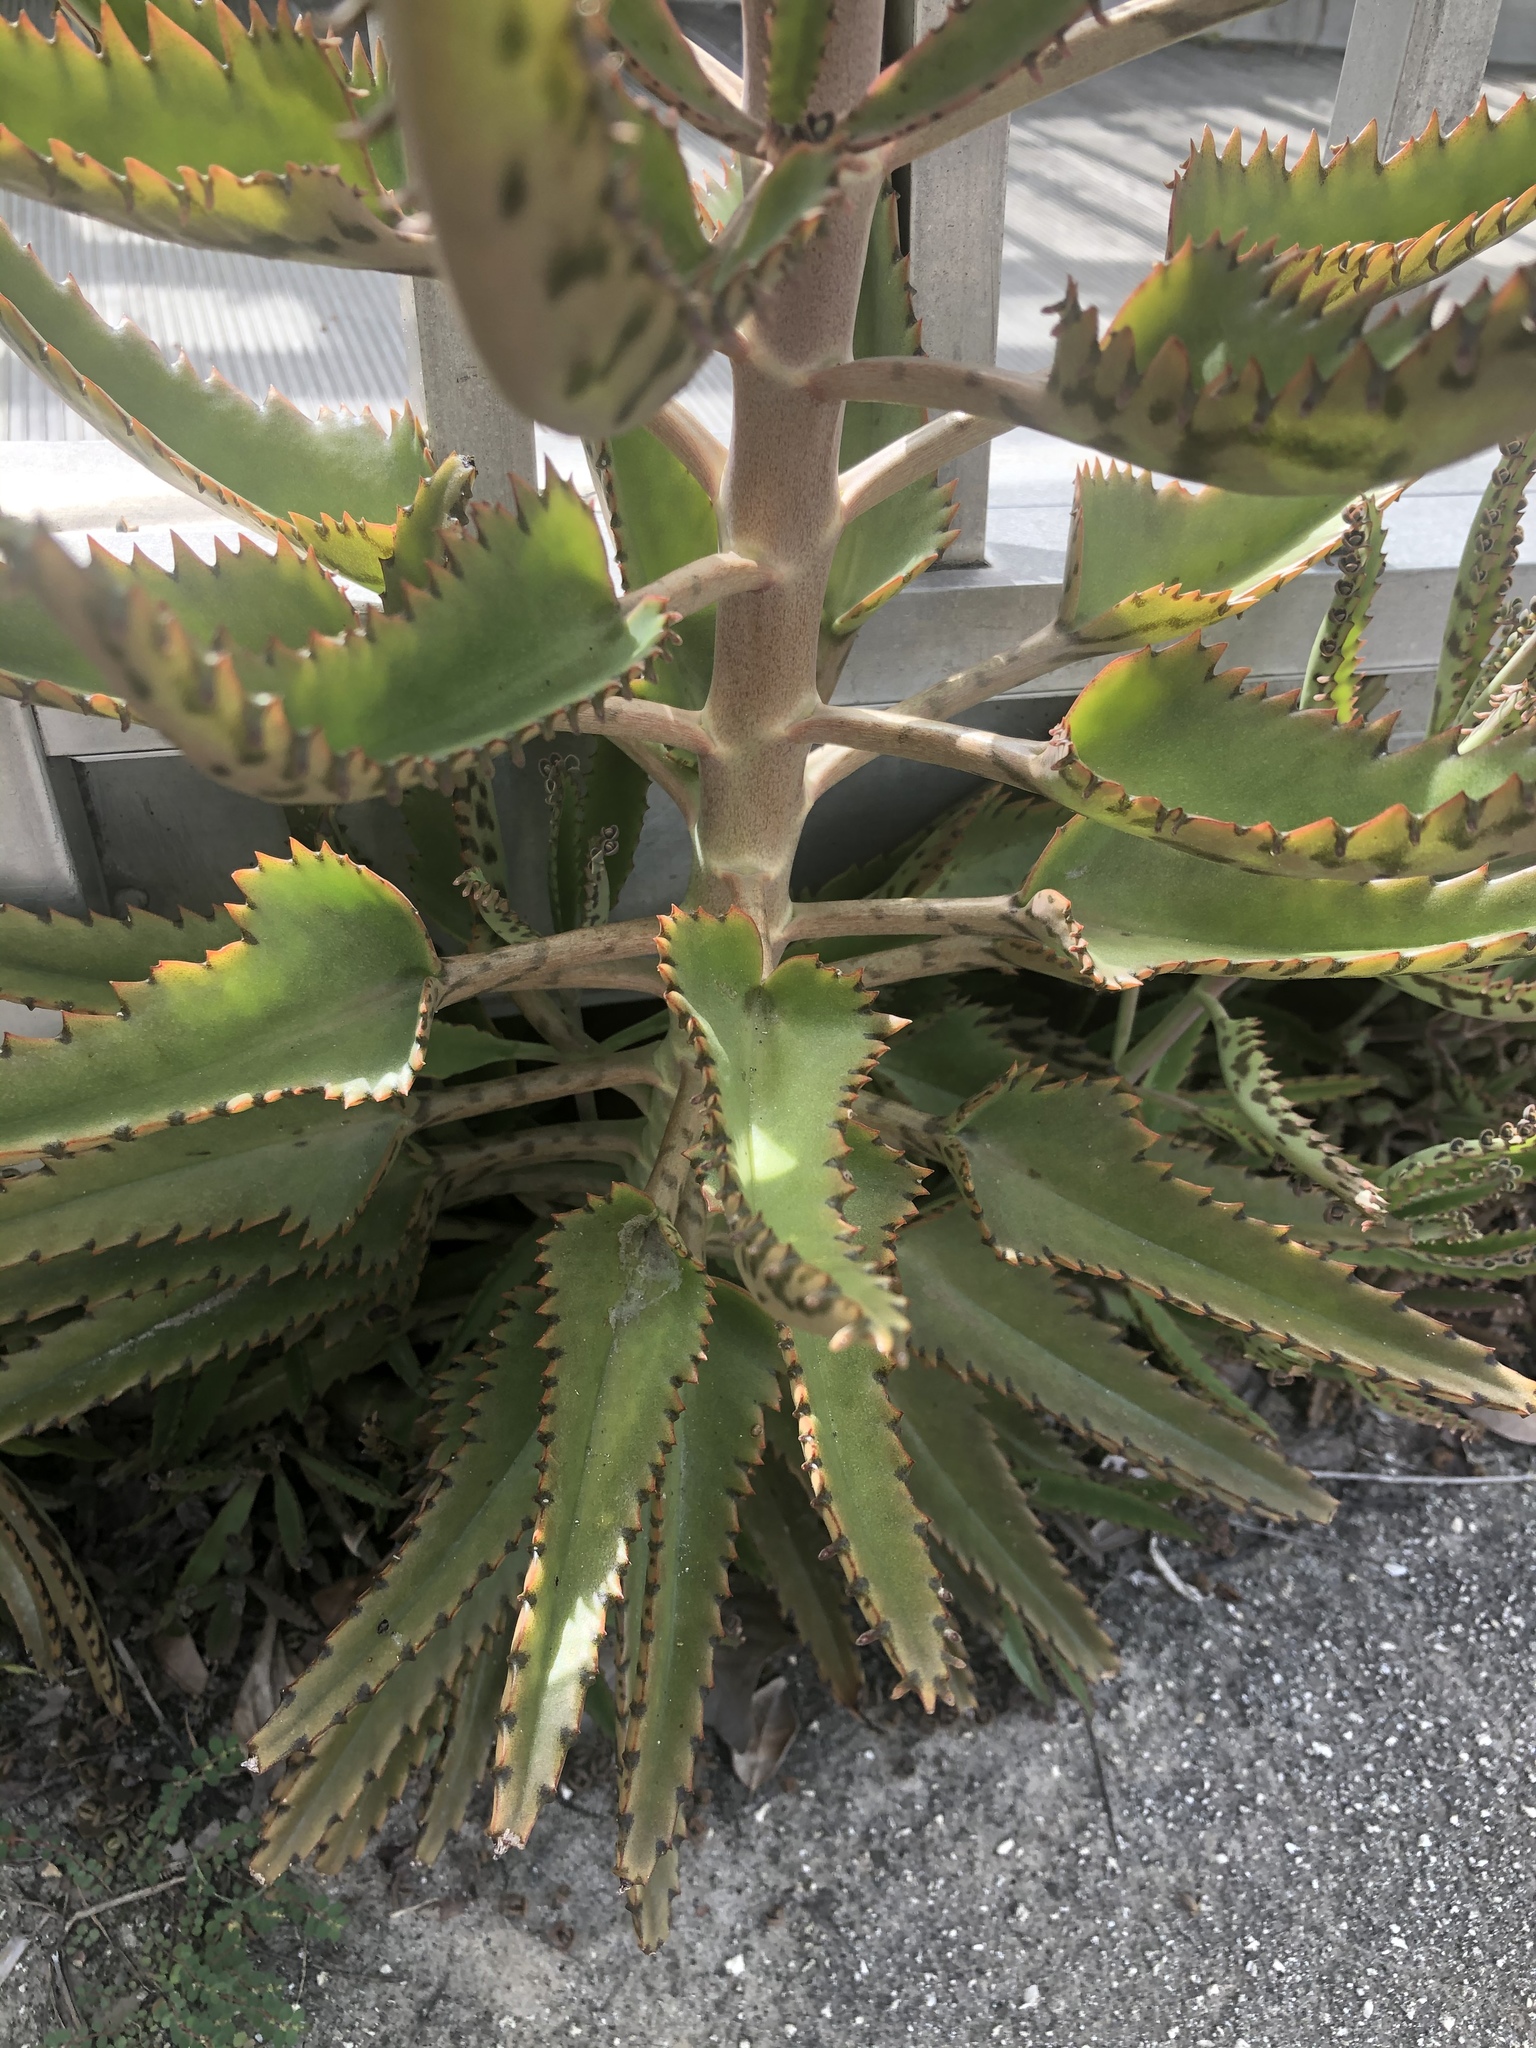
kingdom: Plantae
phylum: Tracheophyta
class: Magnoliopsida
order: Saxifragales
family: Crassulaceae
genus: Kalanchoe
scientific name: Kalanchoe houghtonii
